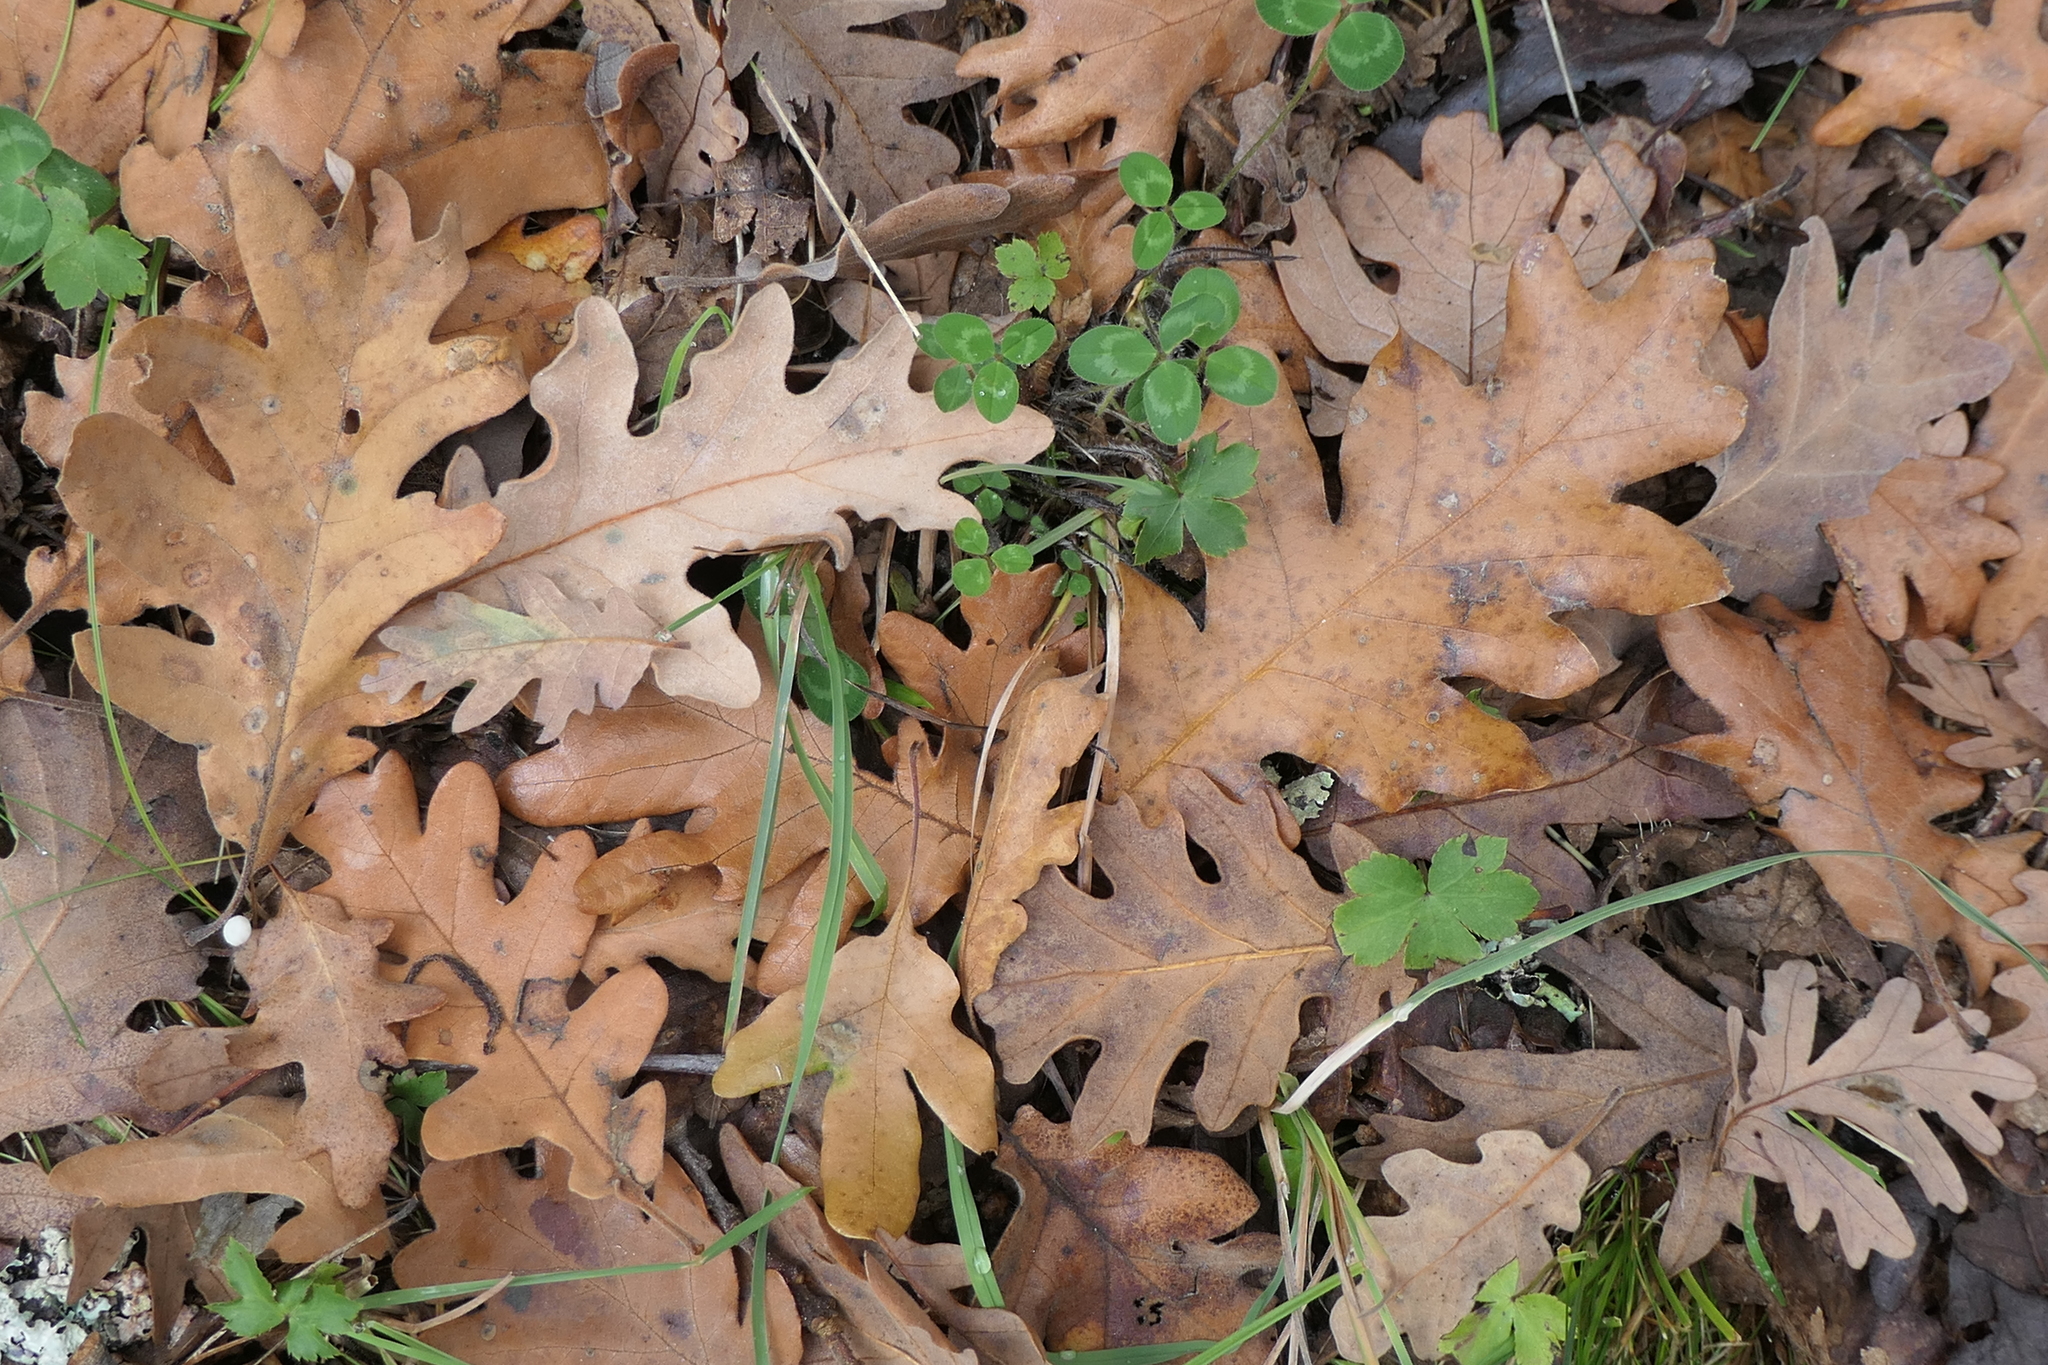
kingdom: Plantae
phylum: Tracheophyta
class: Magnoliopsida
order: Fagales
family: Fagaceae
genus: Quercus
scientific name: Quercus pyrenaica
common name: Pyrenean oak
